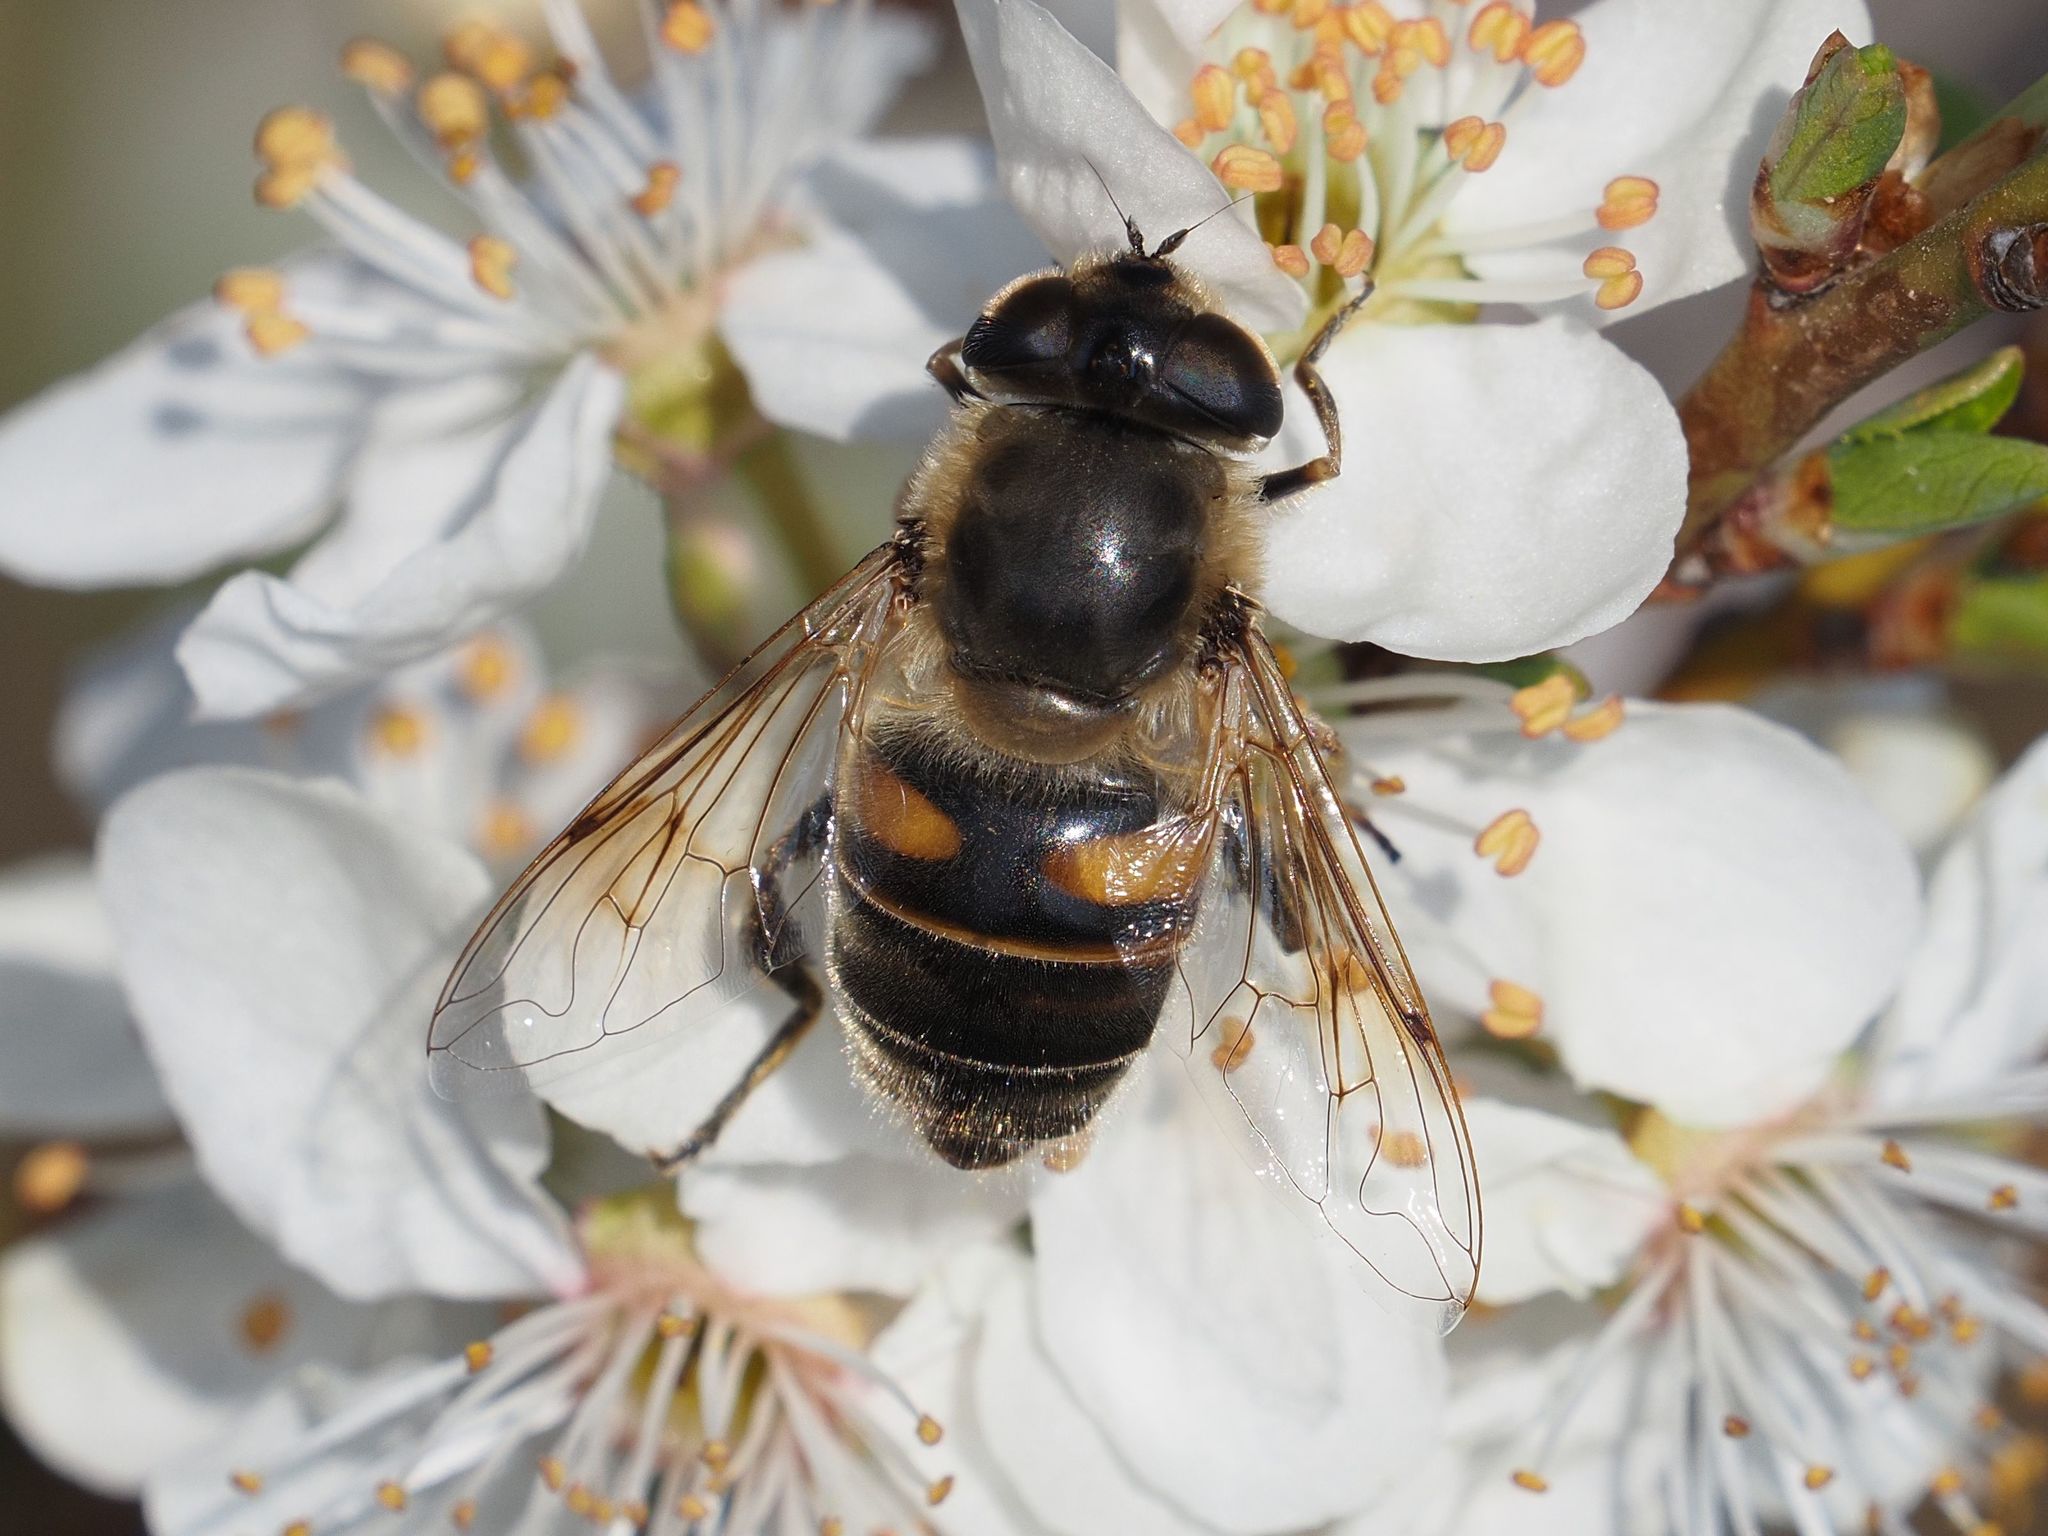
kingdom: Animalia
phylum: Arthropoda
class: Insecta
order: Diptera
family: Syrphidae
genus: Eristalis
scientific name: Eristalis tenax
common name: Drone fly
